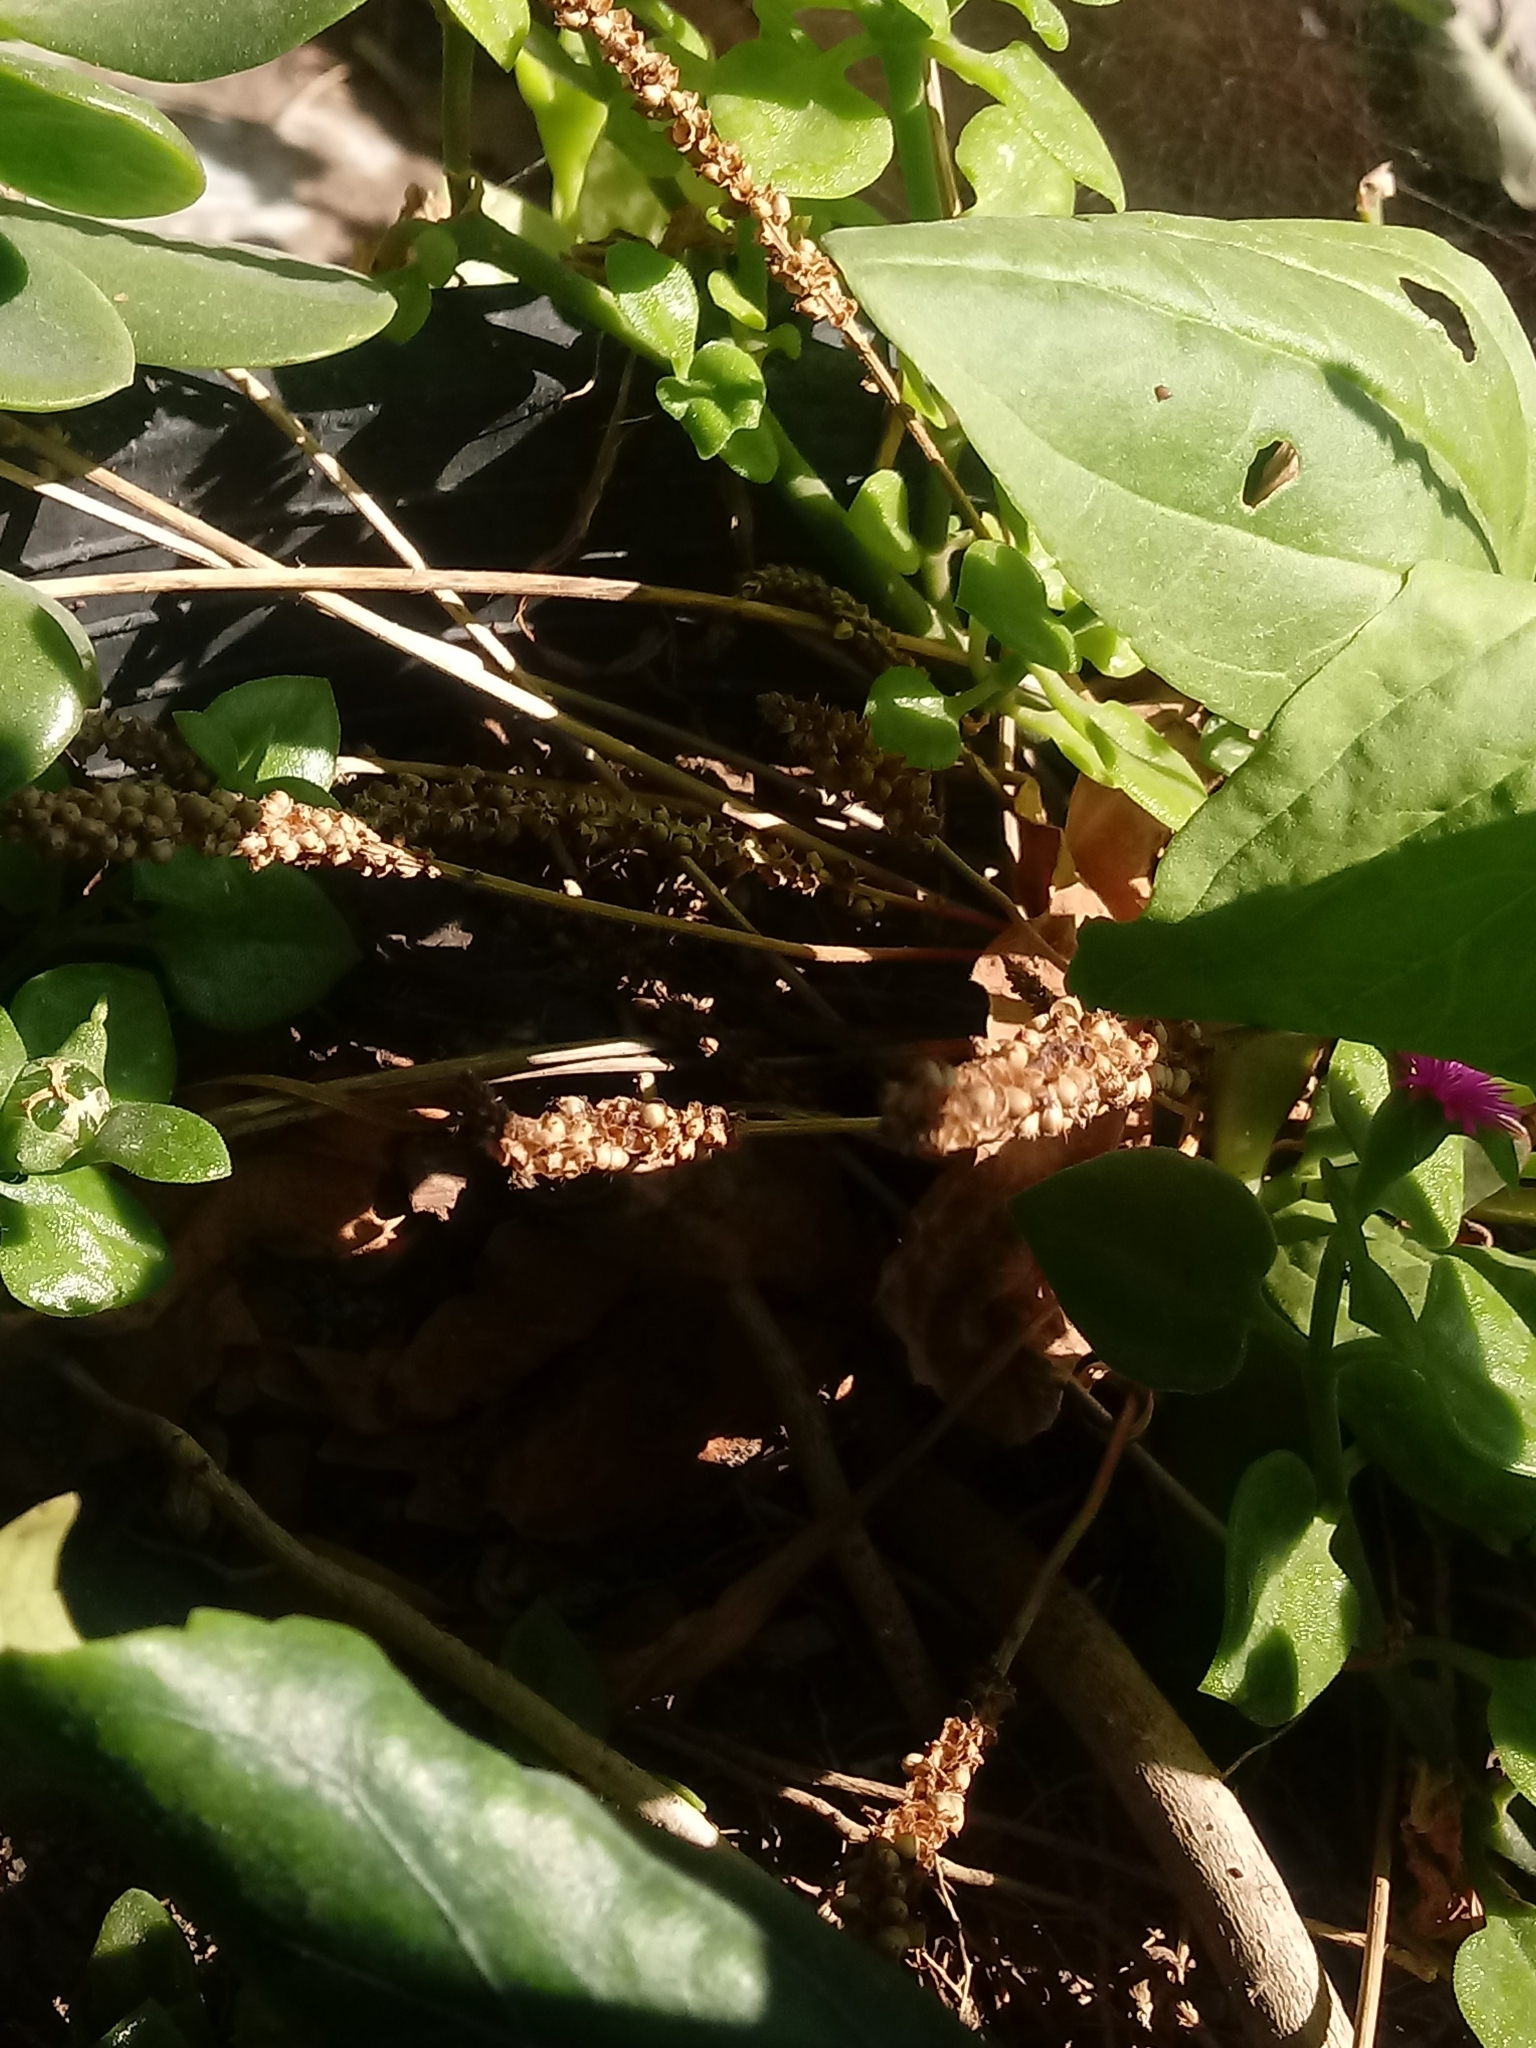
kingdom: Plantae
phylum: Tracheophyta
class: Magnoliopsida
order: Lamiales
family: Plantaginaceae
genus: Plantago
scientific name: Plantago major
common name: Common plantain
